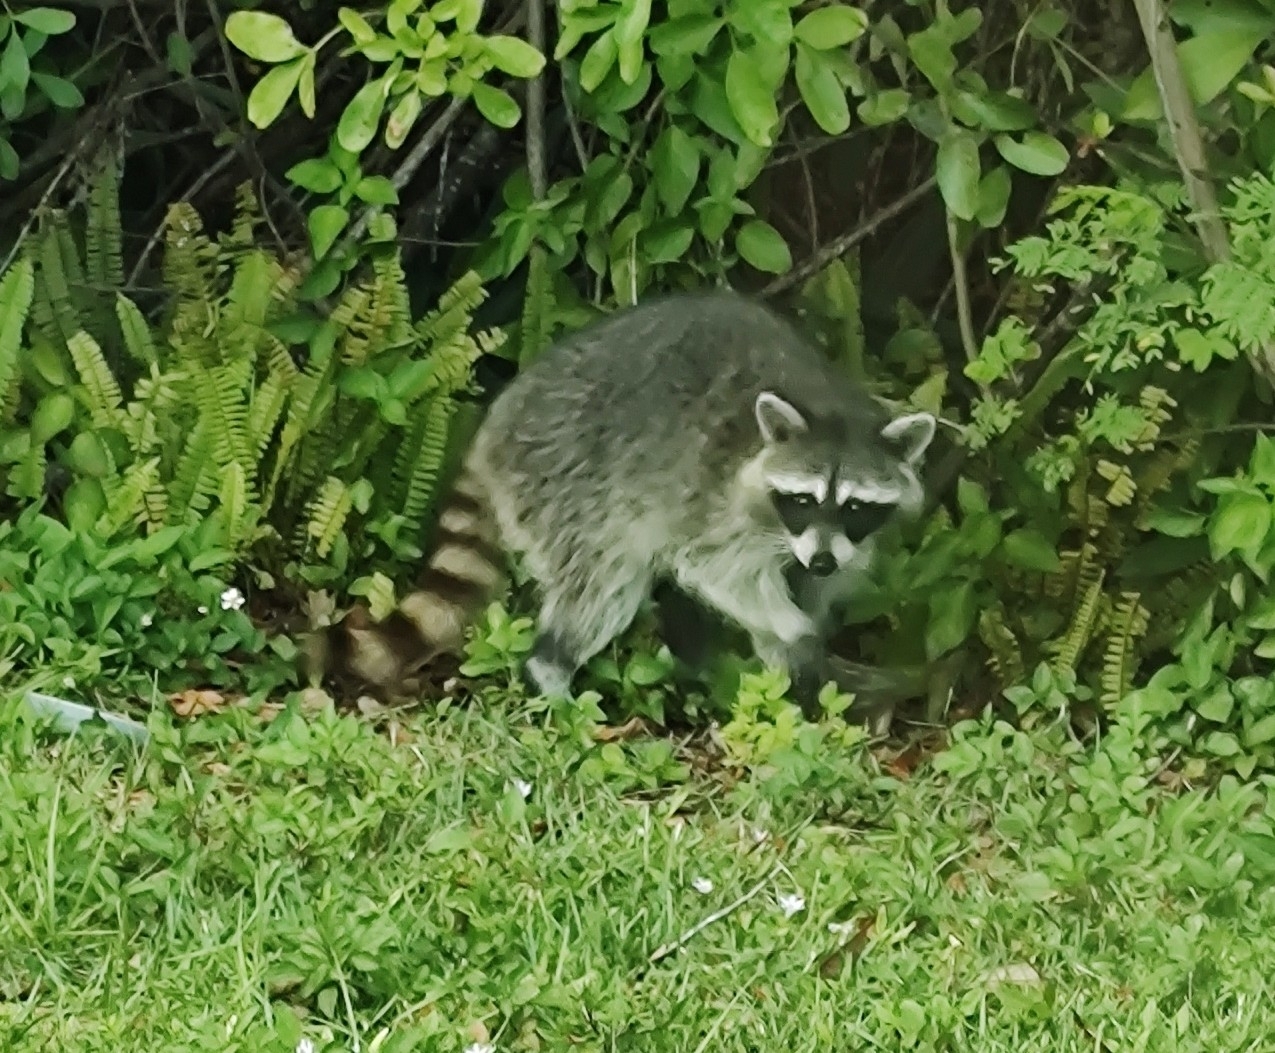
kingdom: Animalia
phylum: Chordata
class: Mammalia
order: Carnivora
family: Procyonidae
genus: Procyon
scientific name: Procyon lotor
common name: Raccoon
